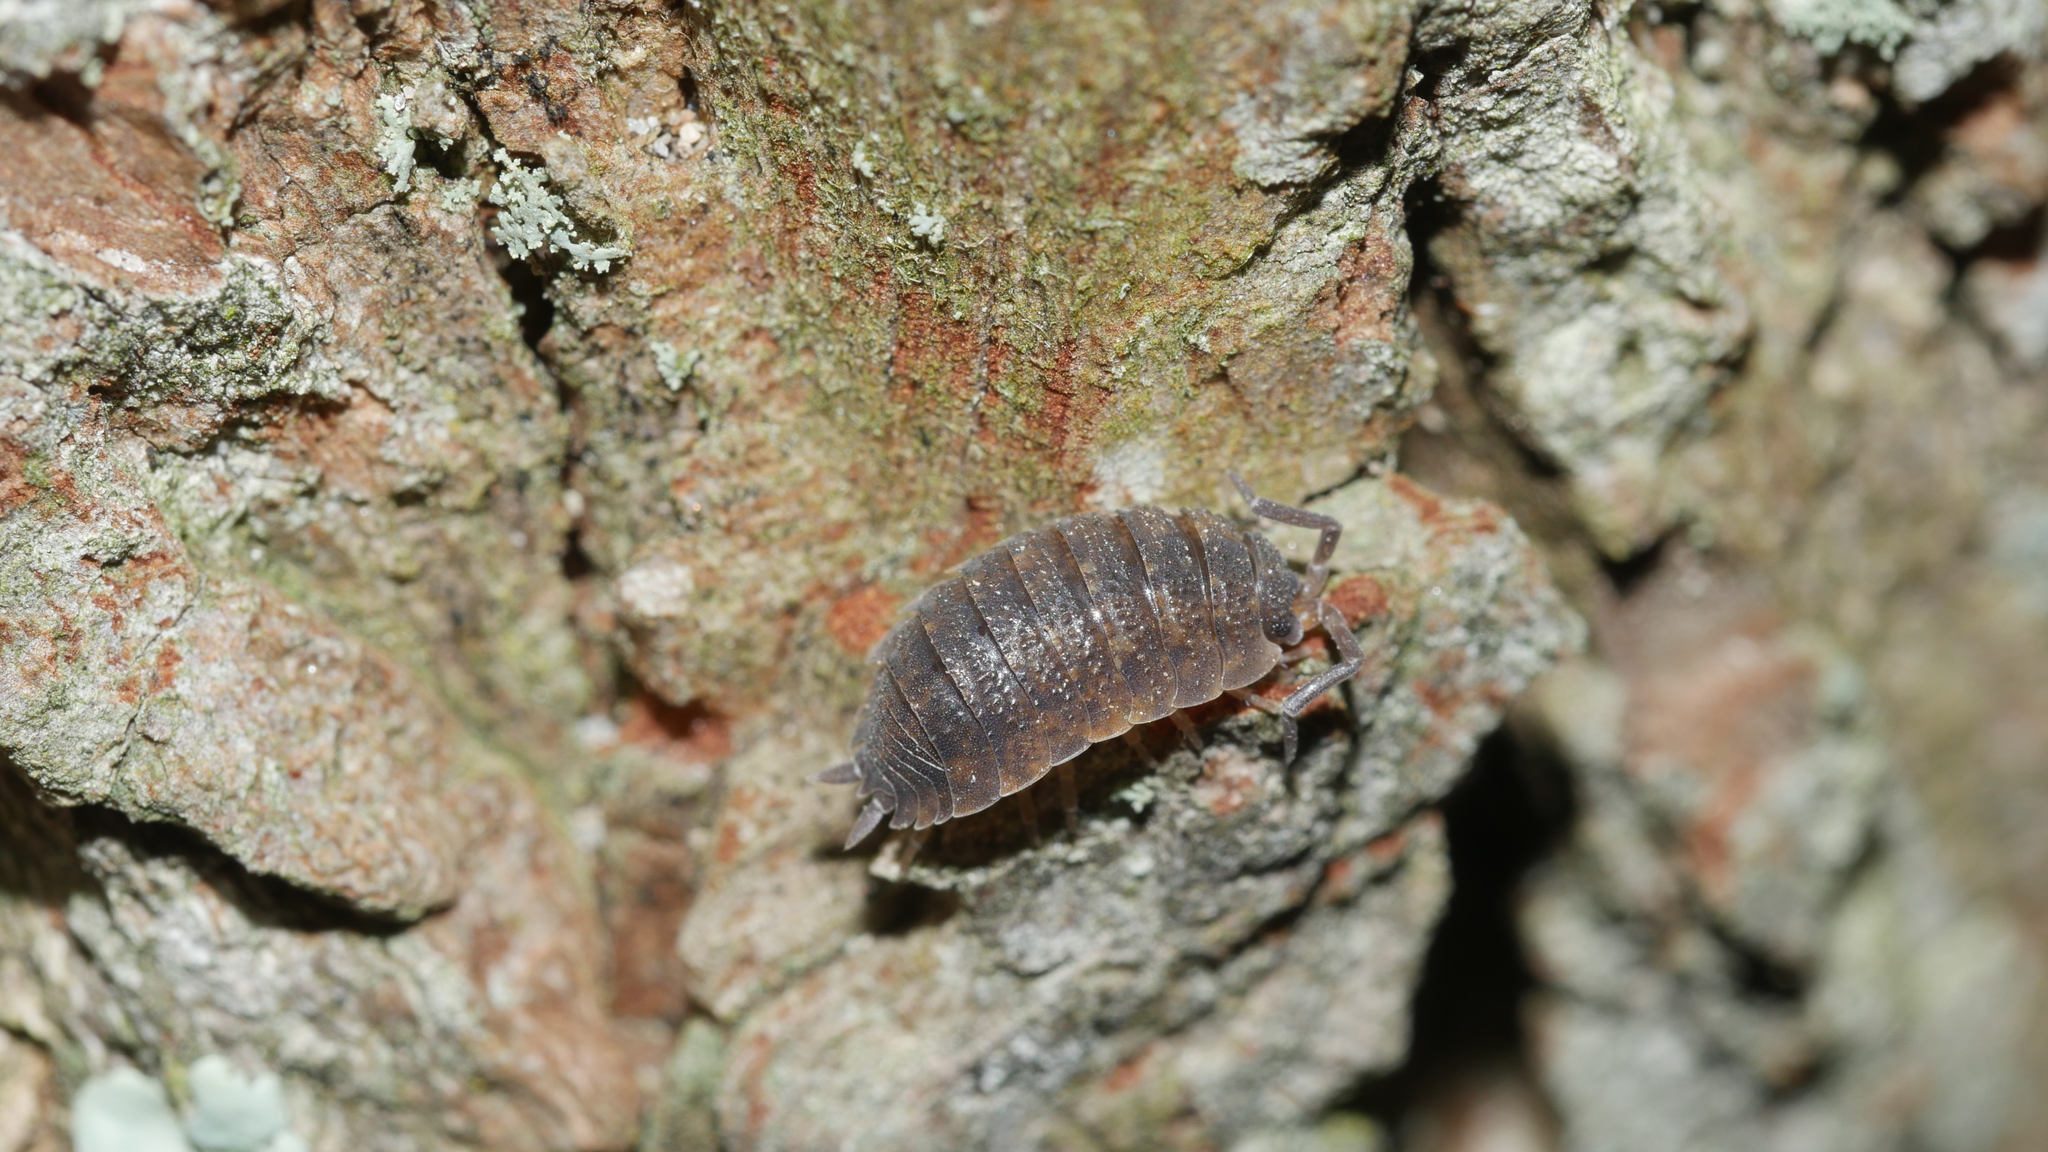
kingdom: Animalia
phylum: Arthropoda
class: Malacostraca
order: Isopoda
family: Porcellionidae
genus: Porcellio
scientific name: Porcellio scaber
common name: Common rough woodlouse
